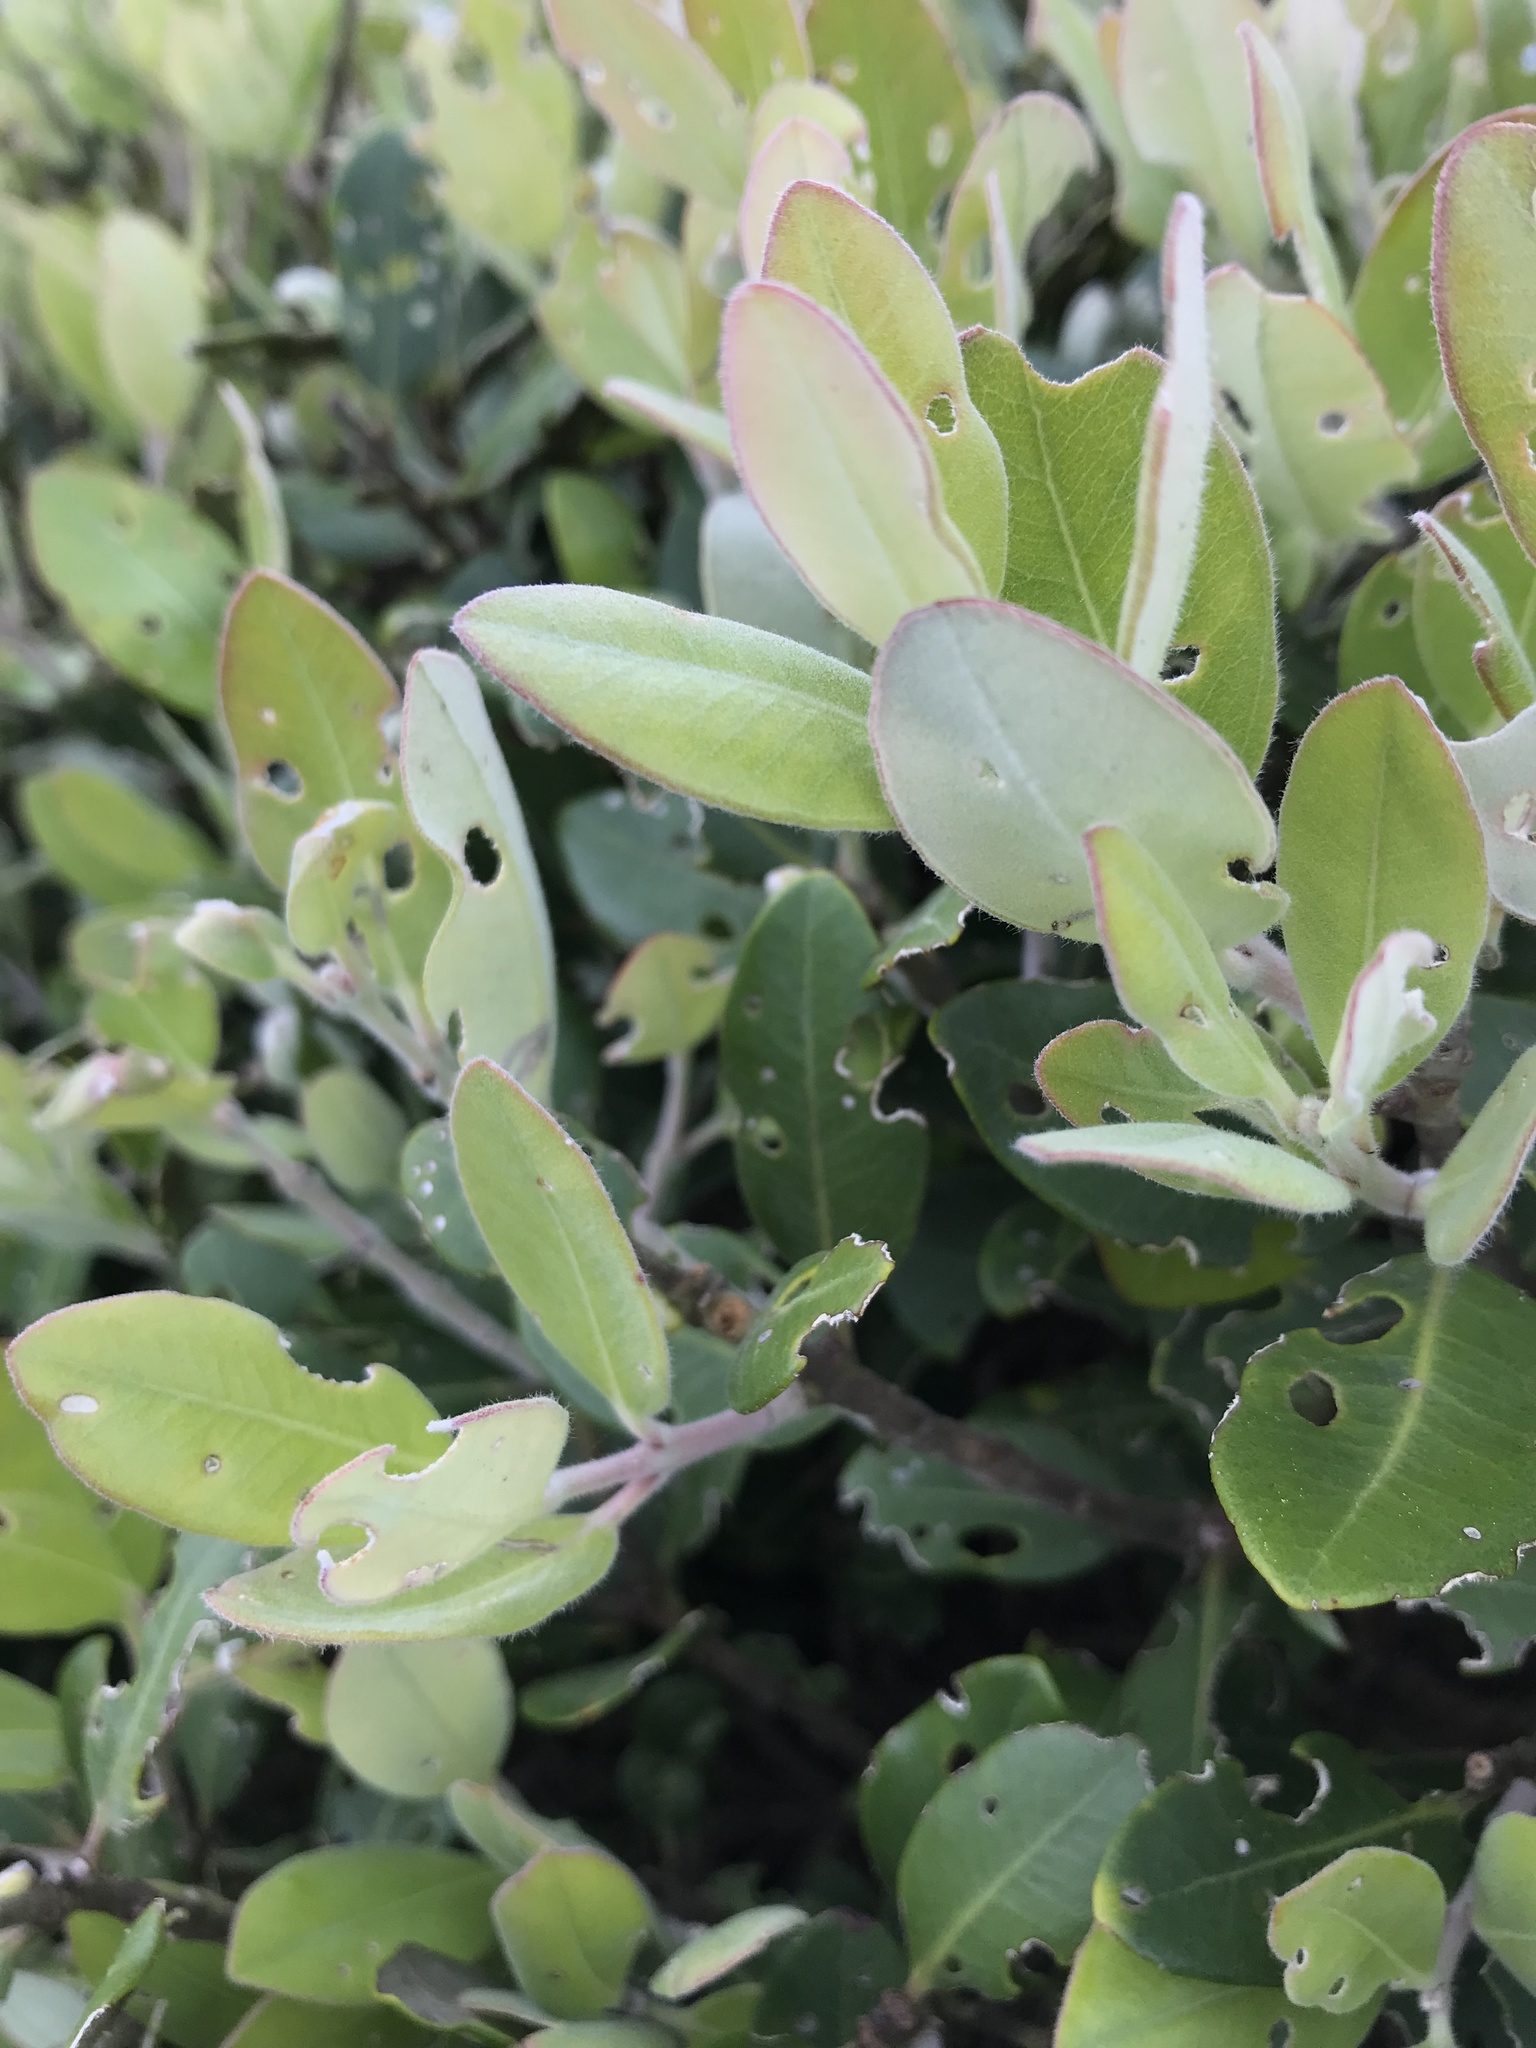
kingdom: Plantae
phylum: Tracheophyta
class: Magnoliopsida
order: Myrtales
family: Myrtaceae
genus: Metrosideros
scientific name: Metrosideros excelsa
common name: New zealand christmastree
